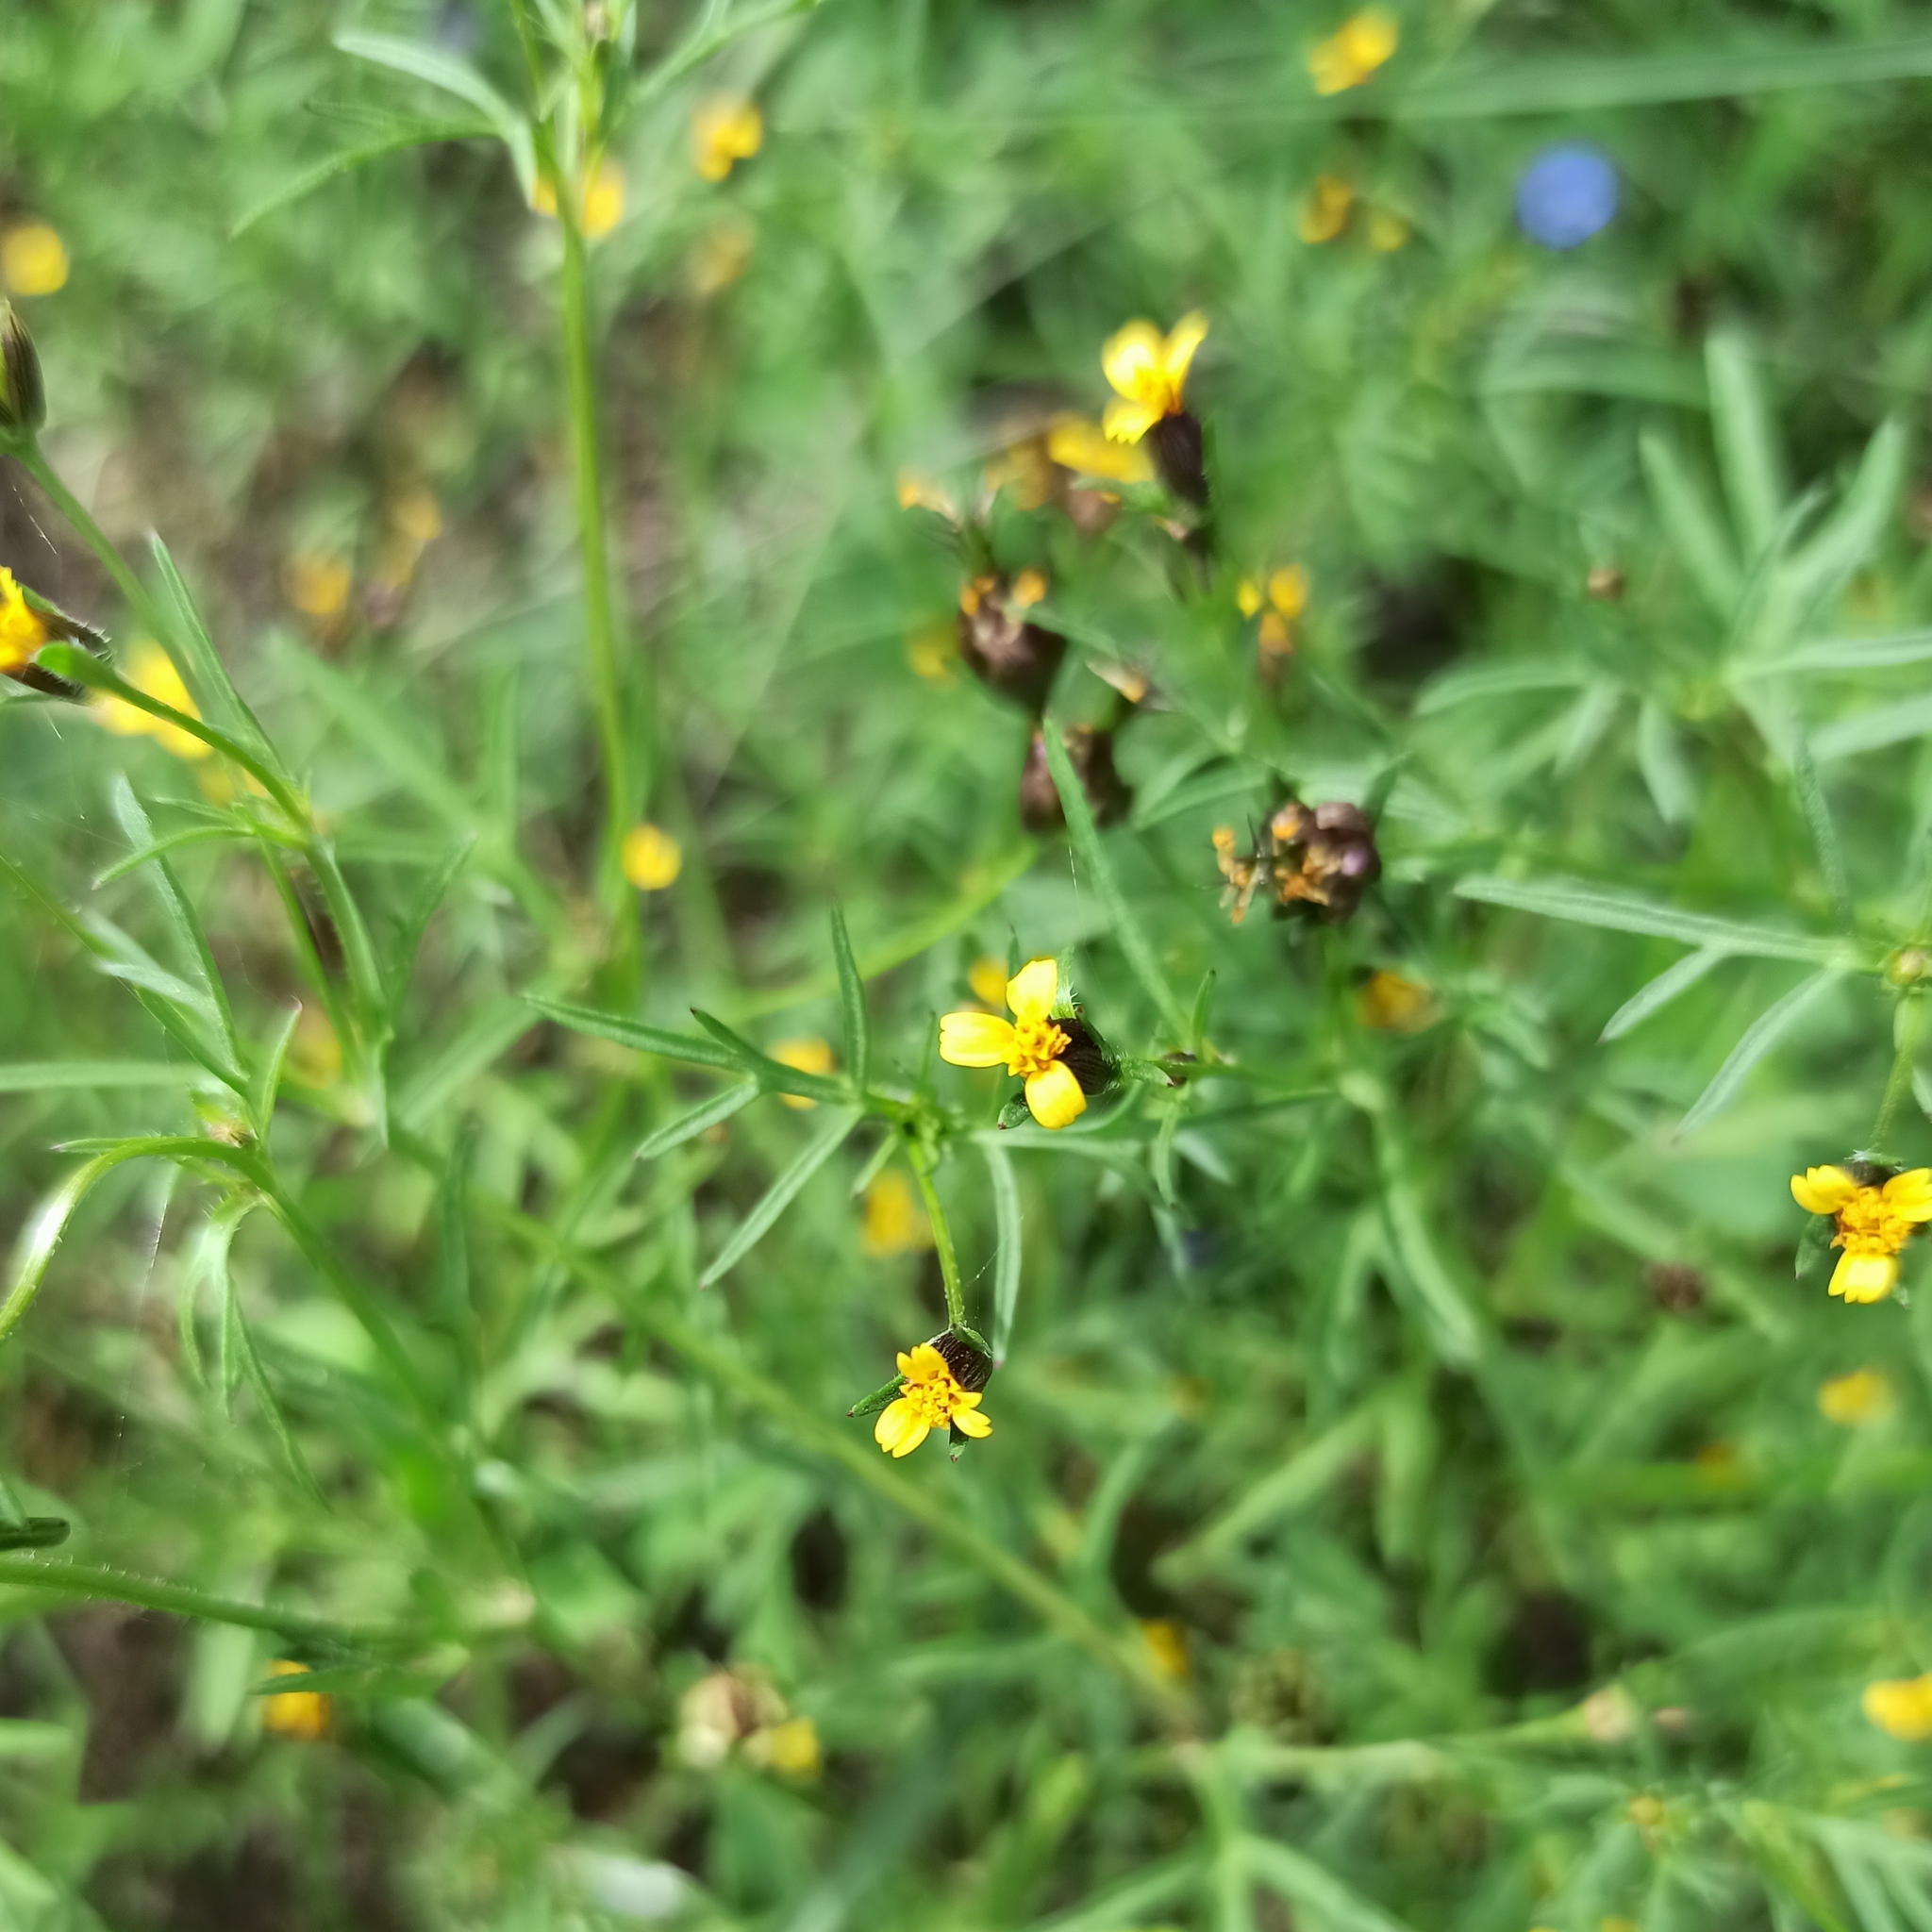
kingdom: Plantae
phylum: Tracheophyta
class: Magnoliopsida
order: Asterales
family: Asteraceae
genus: Heterosperma
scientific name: Heterosperma pinnatum
